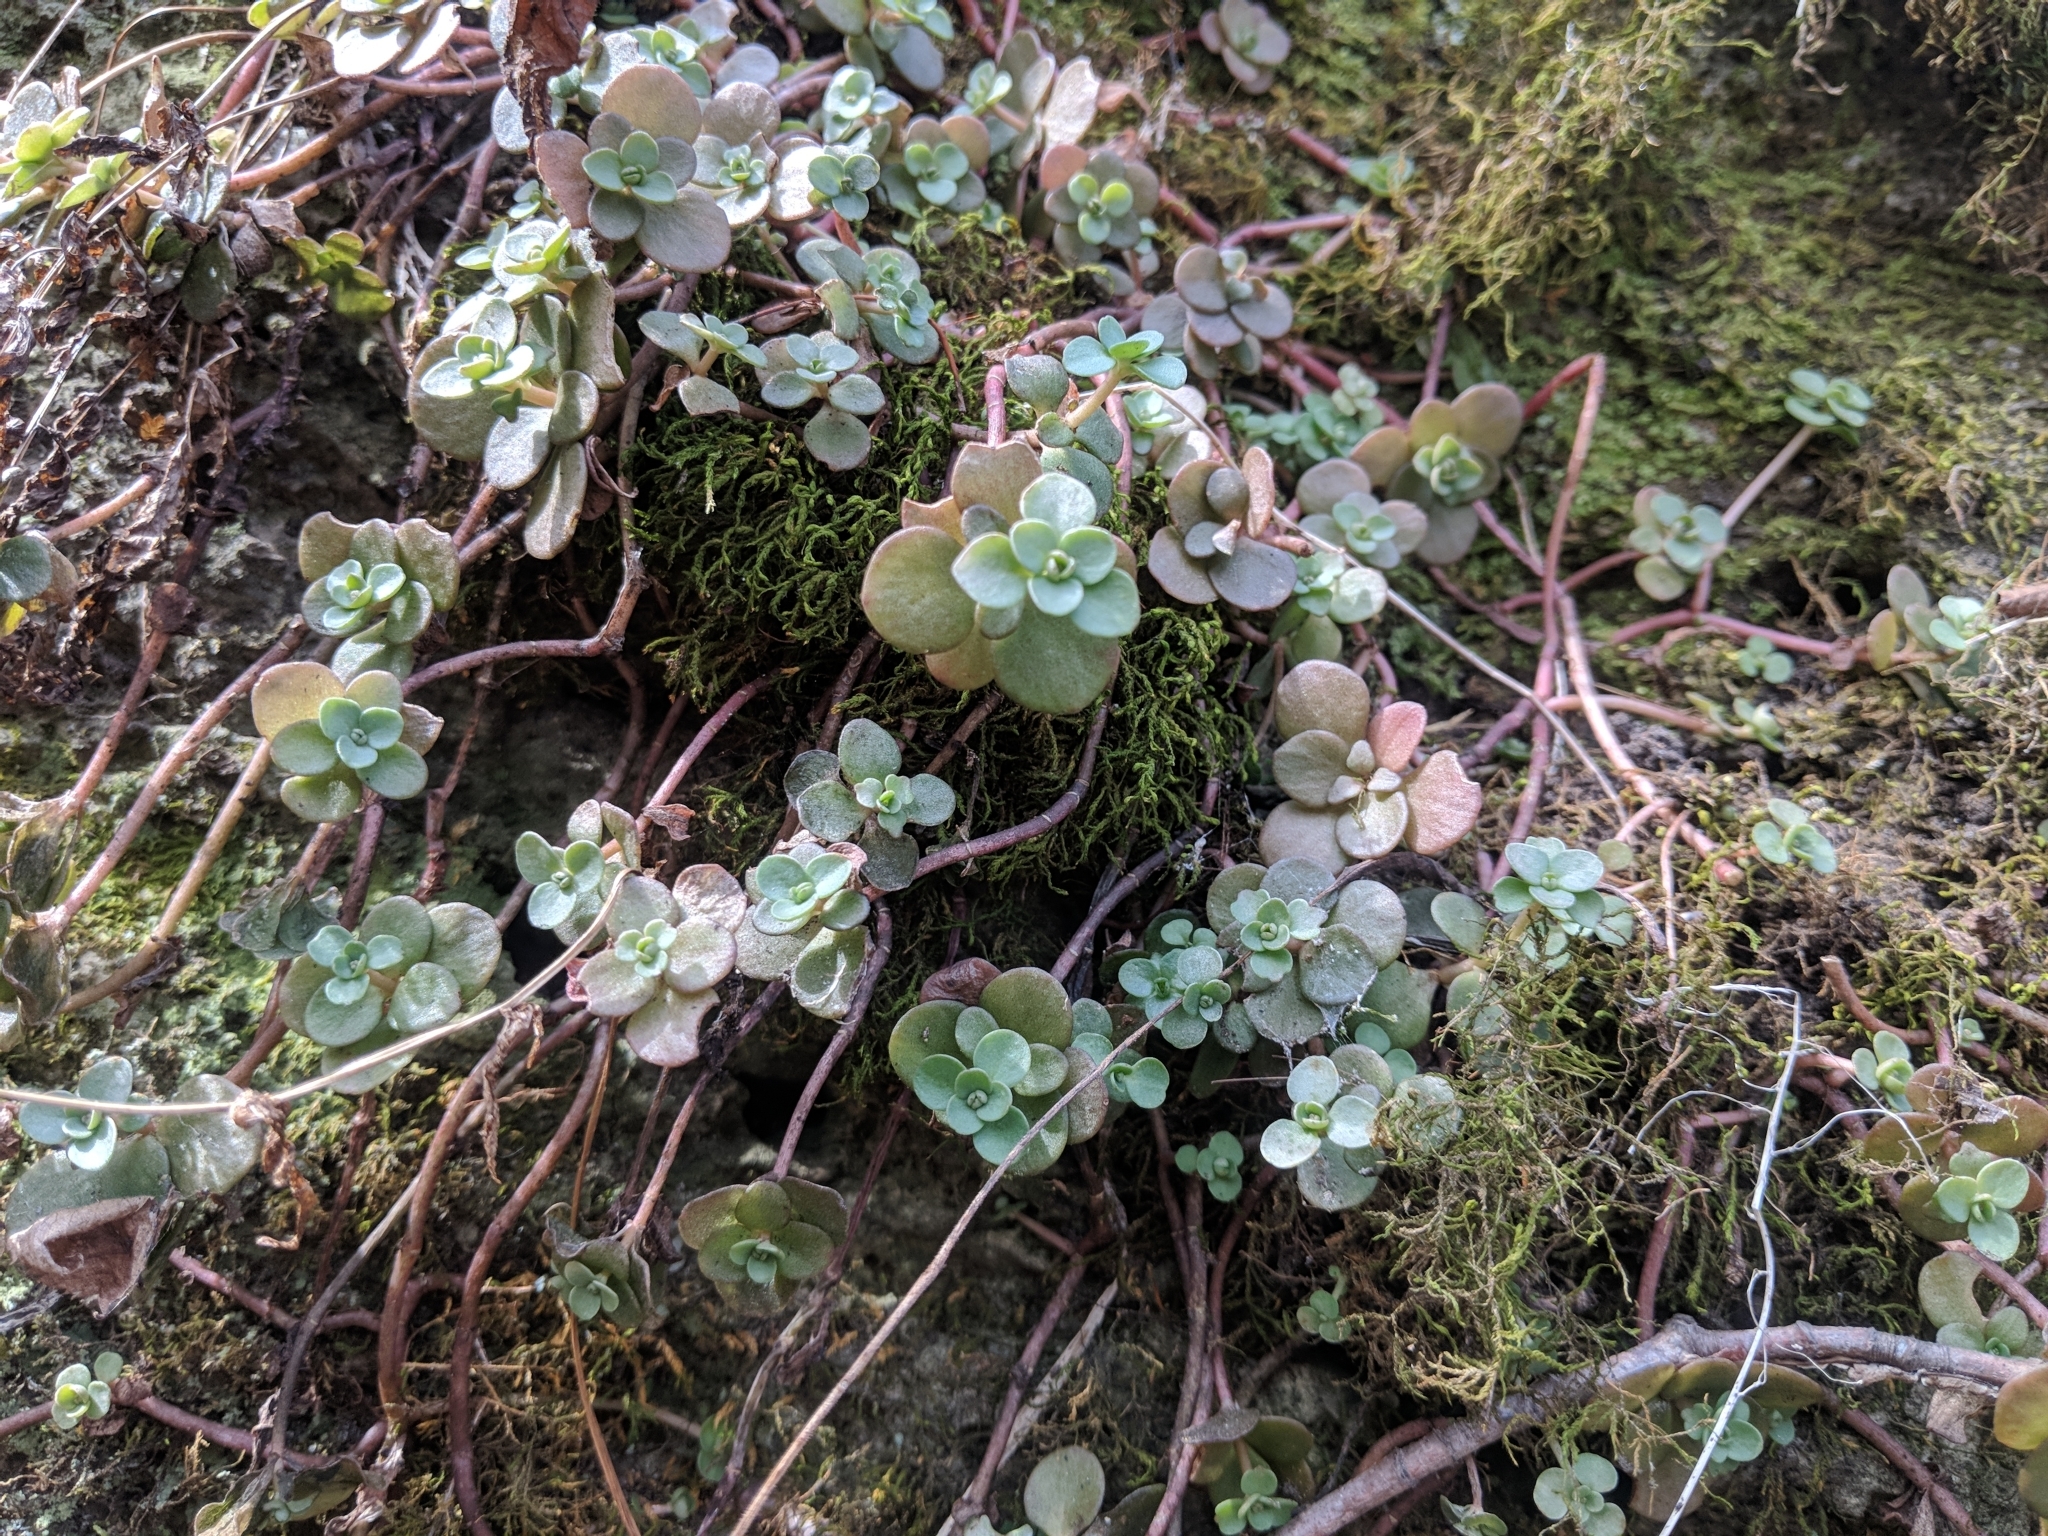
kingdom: Plantae
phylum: Tracheophyta
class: Magnoliopsida
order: Saxifragales
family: Crassulaceae
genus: Sedum
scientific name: Sedum ternatum
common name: Wild stonecrop
